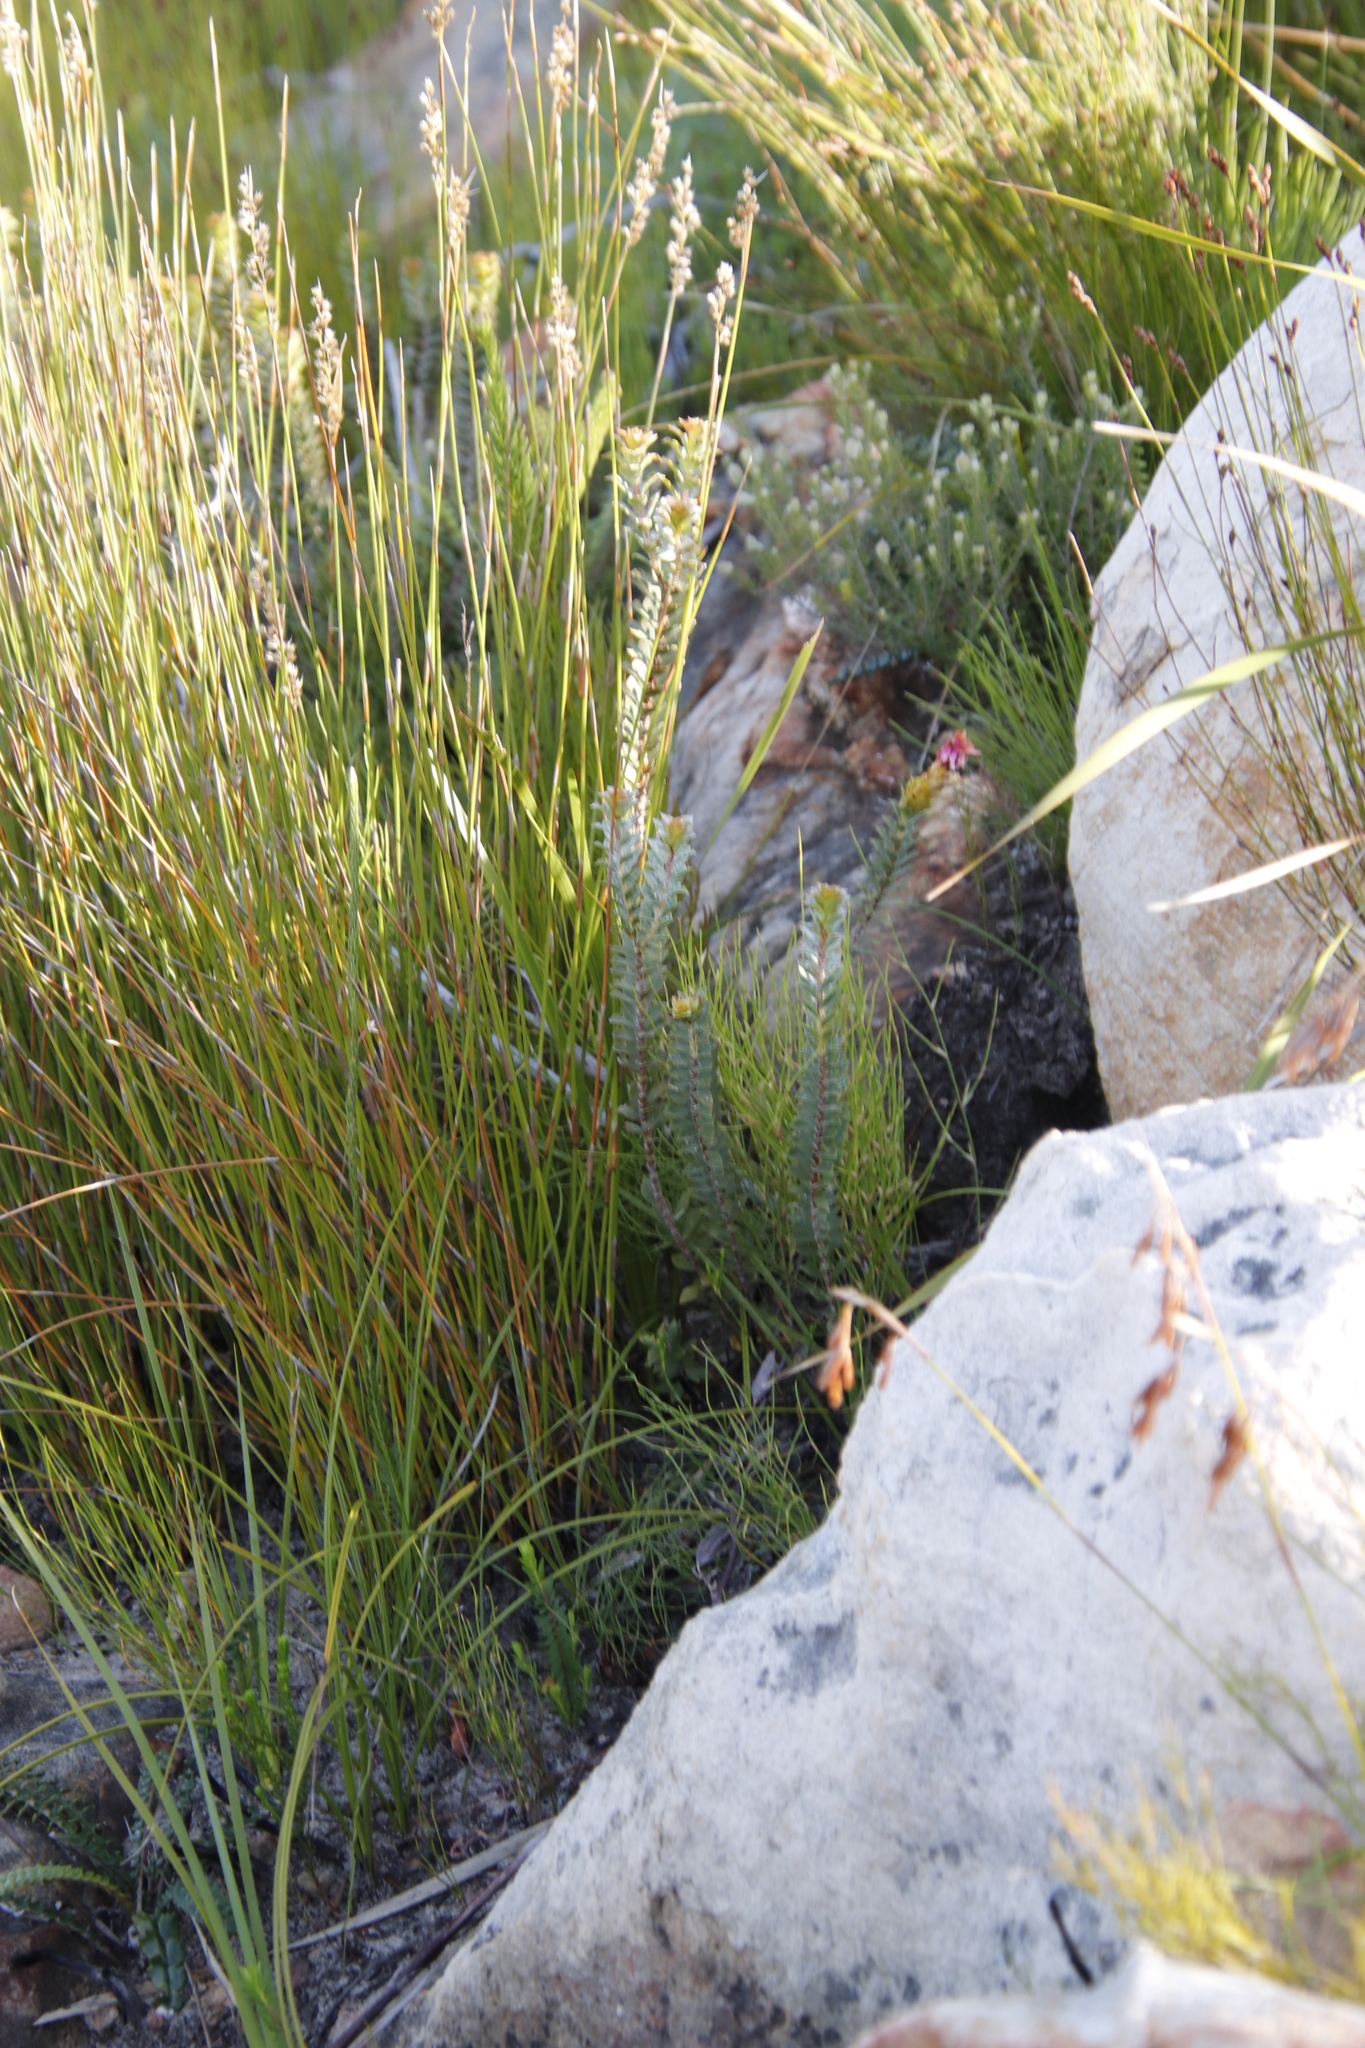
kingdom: Plantae
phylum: Tracheophyta
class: Magnoliopsida
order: Myrtales
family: Penaeaceae
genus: Saltera
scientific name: Saltera sarcocolla
